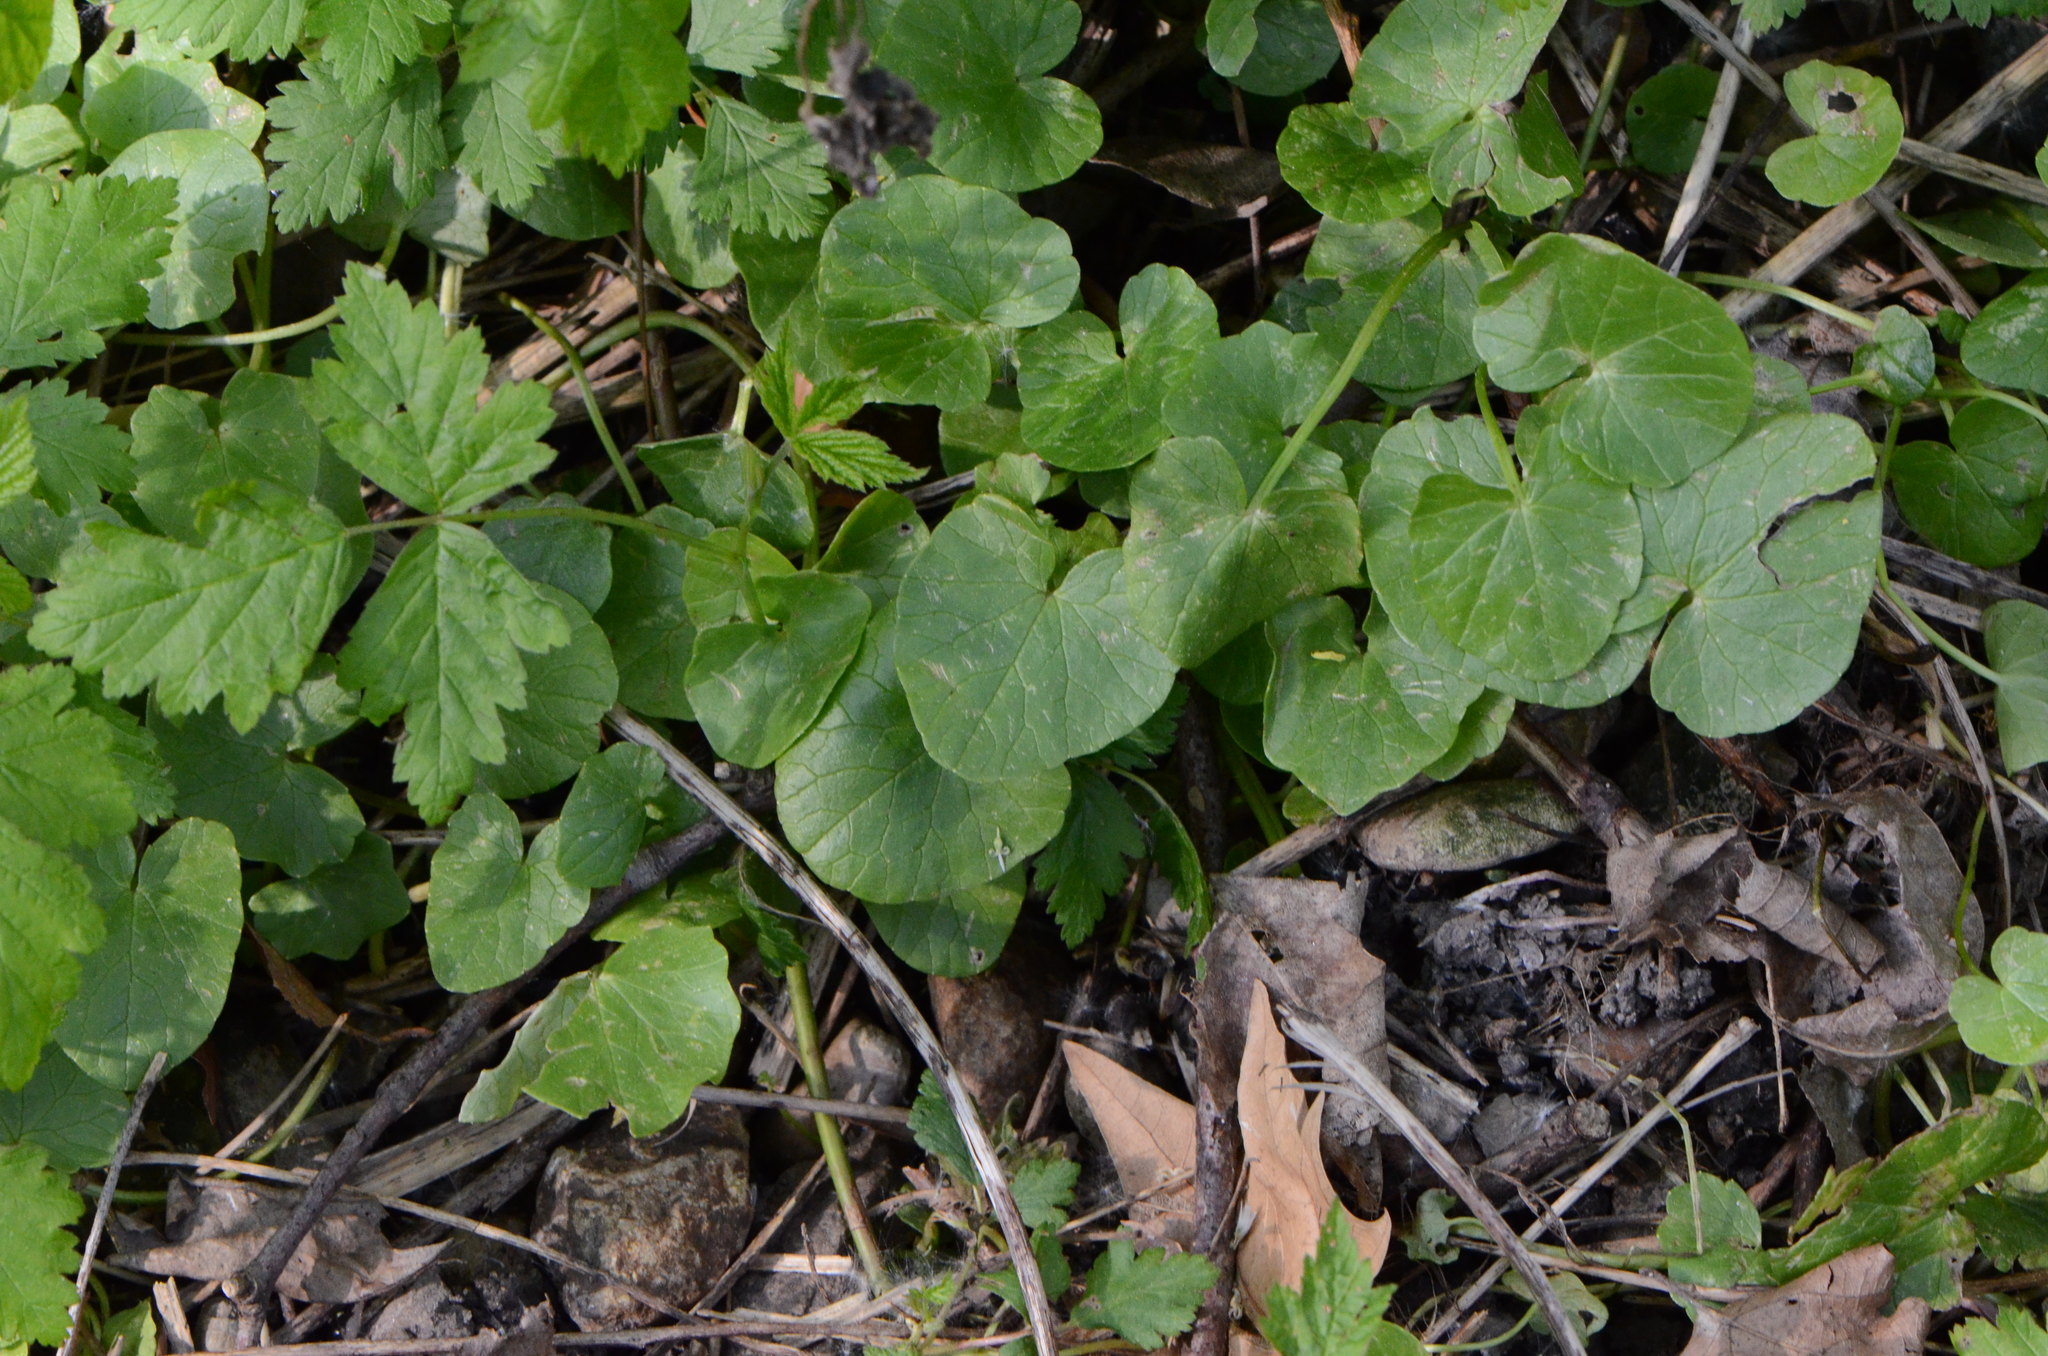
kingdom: Plantae
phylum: Tracheophyta
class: Magnoliopsida
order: Ranunculales
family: Ranunculaceae
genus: Ficaria
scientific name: Ficaria verna
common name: Lesser celandine
